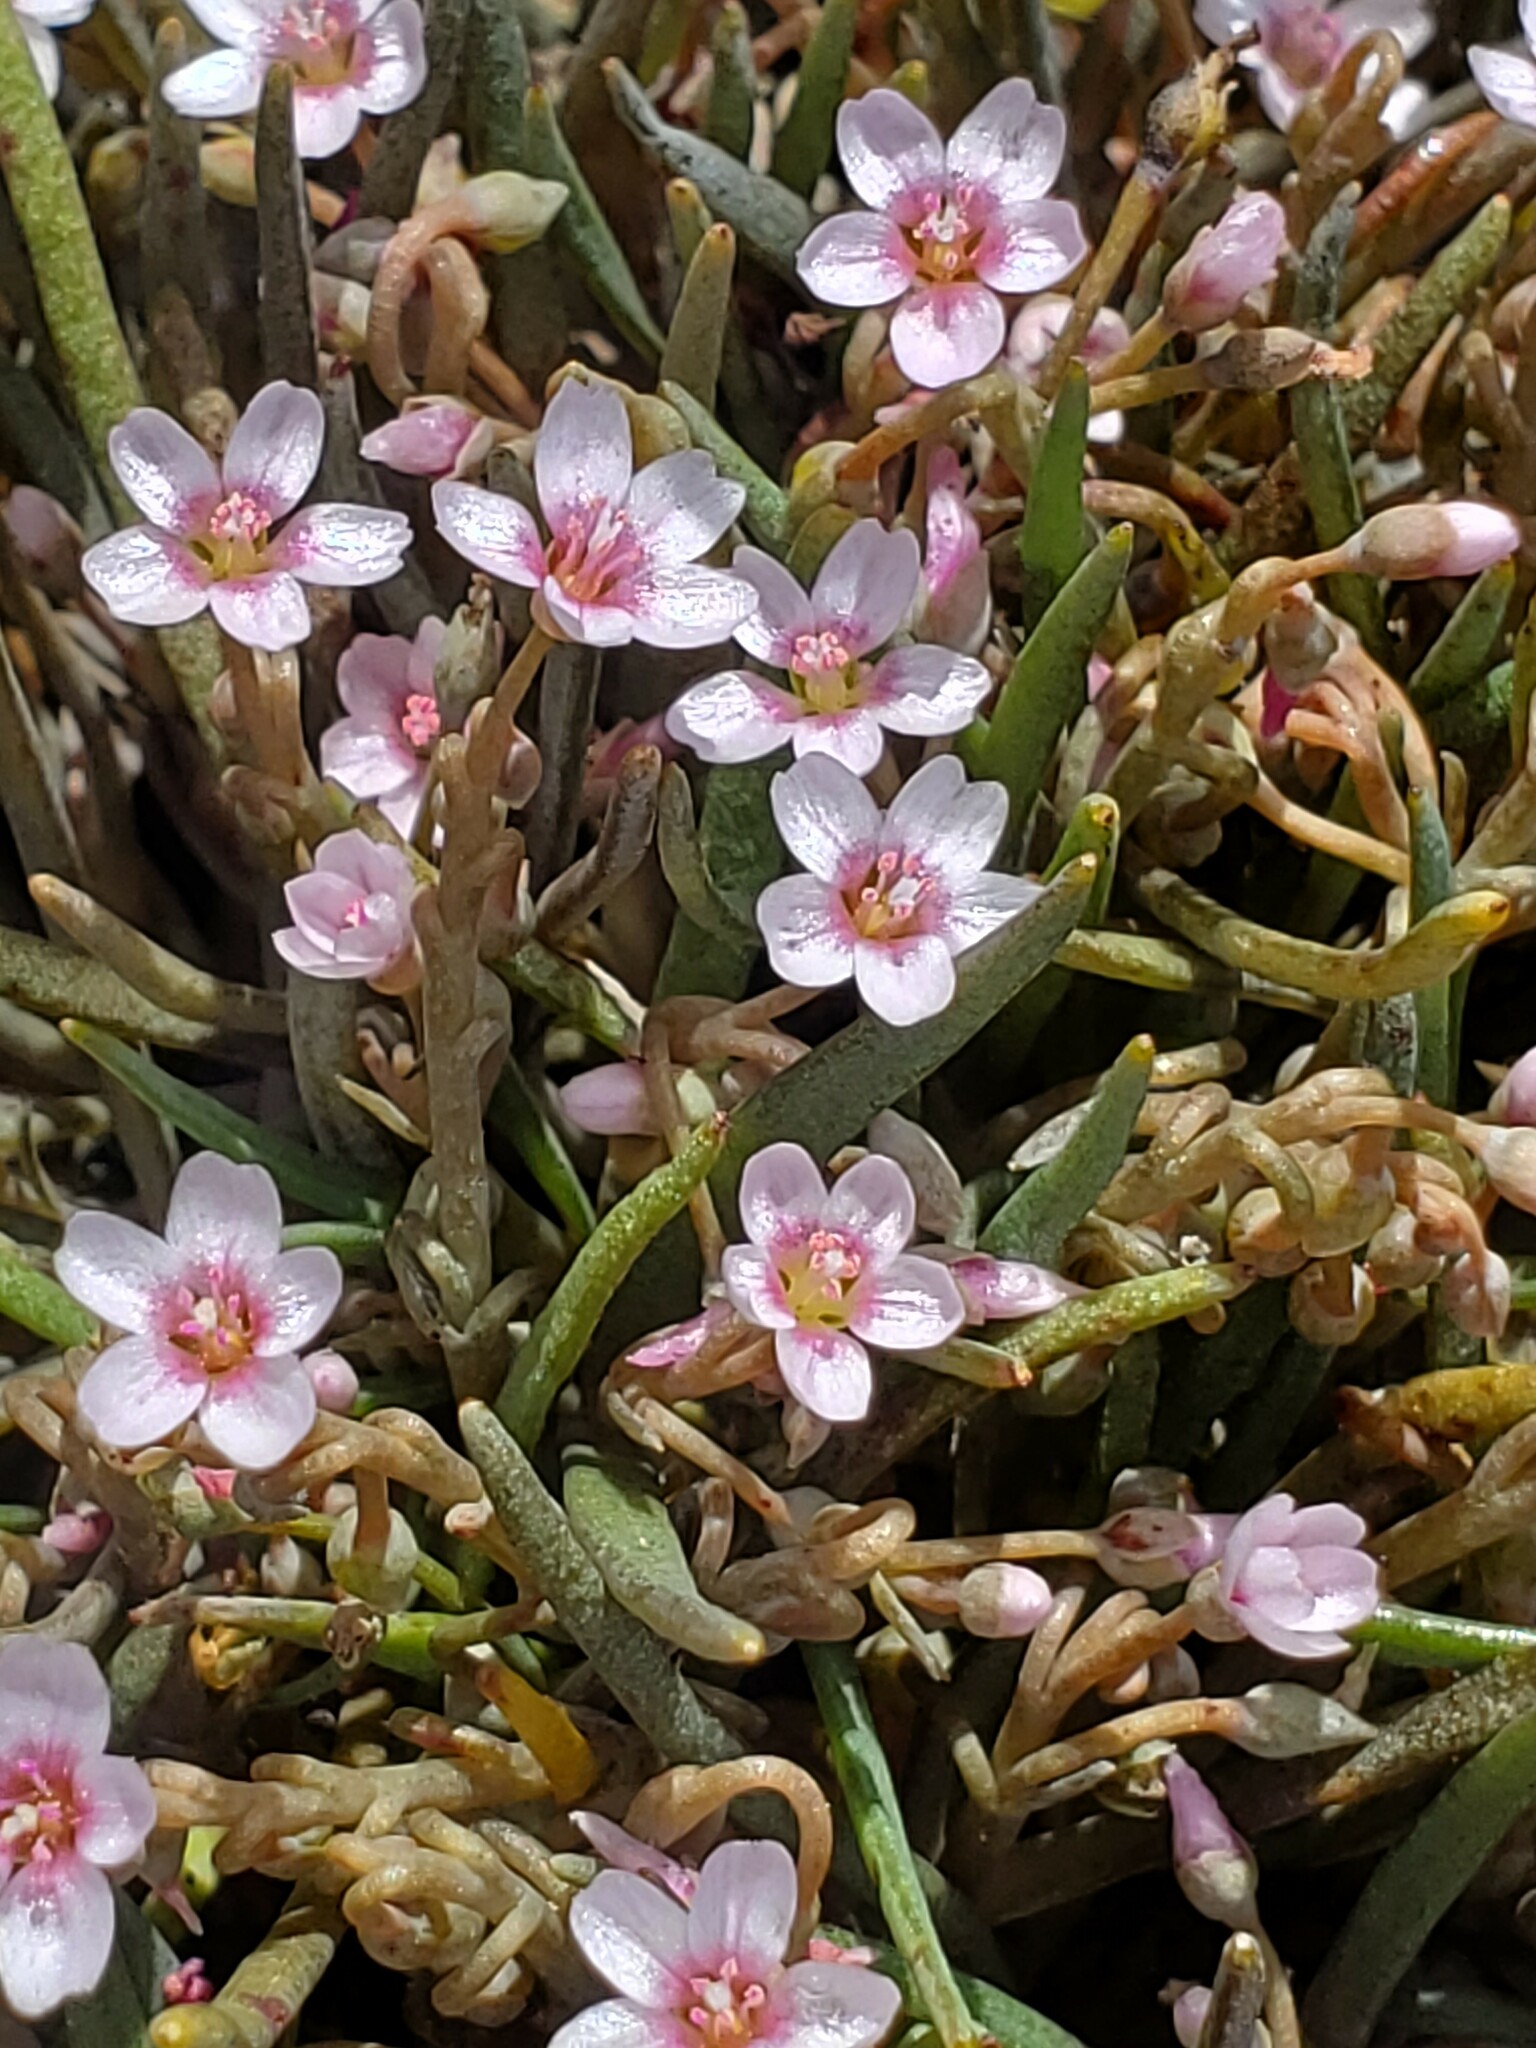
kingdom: Plantae
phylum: Tracheophyta
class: Magnoliopsida
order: Caryophyllales
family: Montiaceae
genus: Claytonia
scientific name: Claytonia exigua
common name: Pale spring beauty
